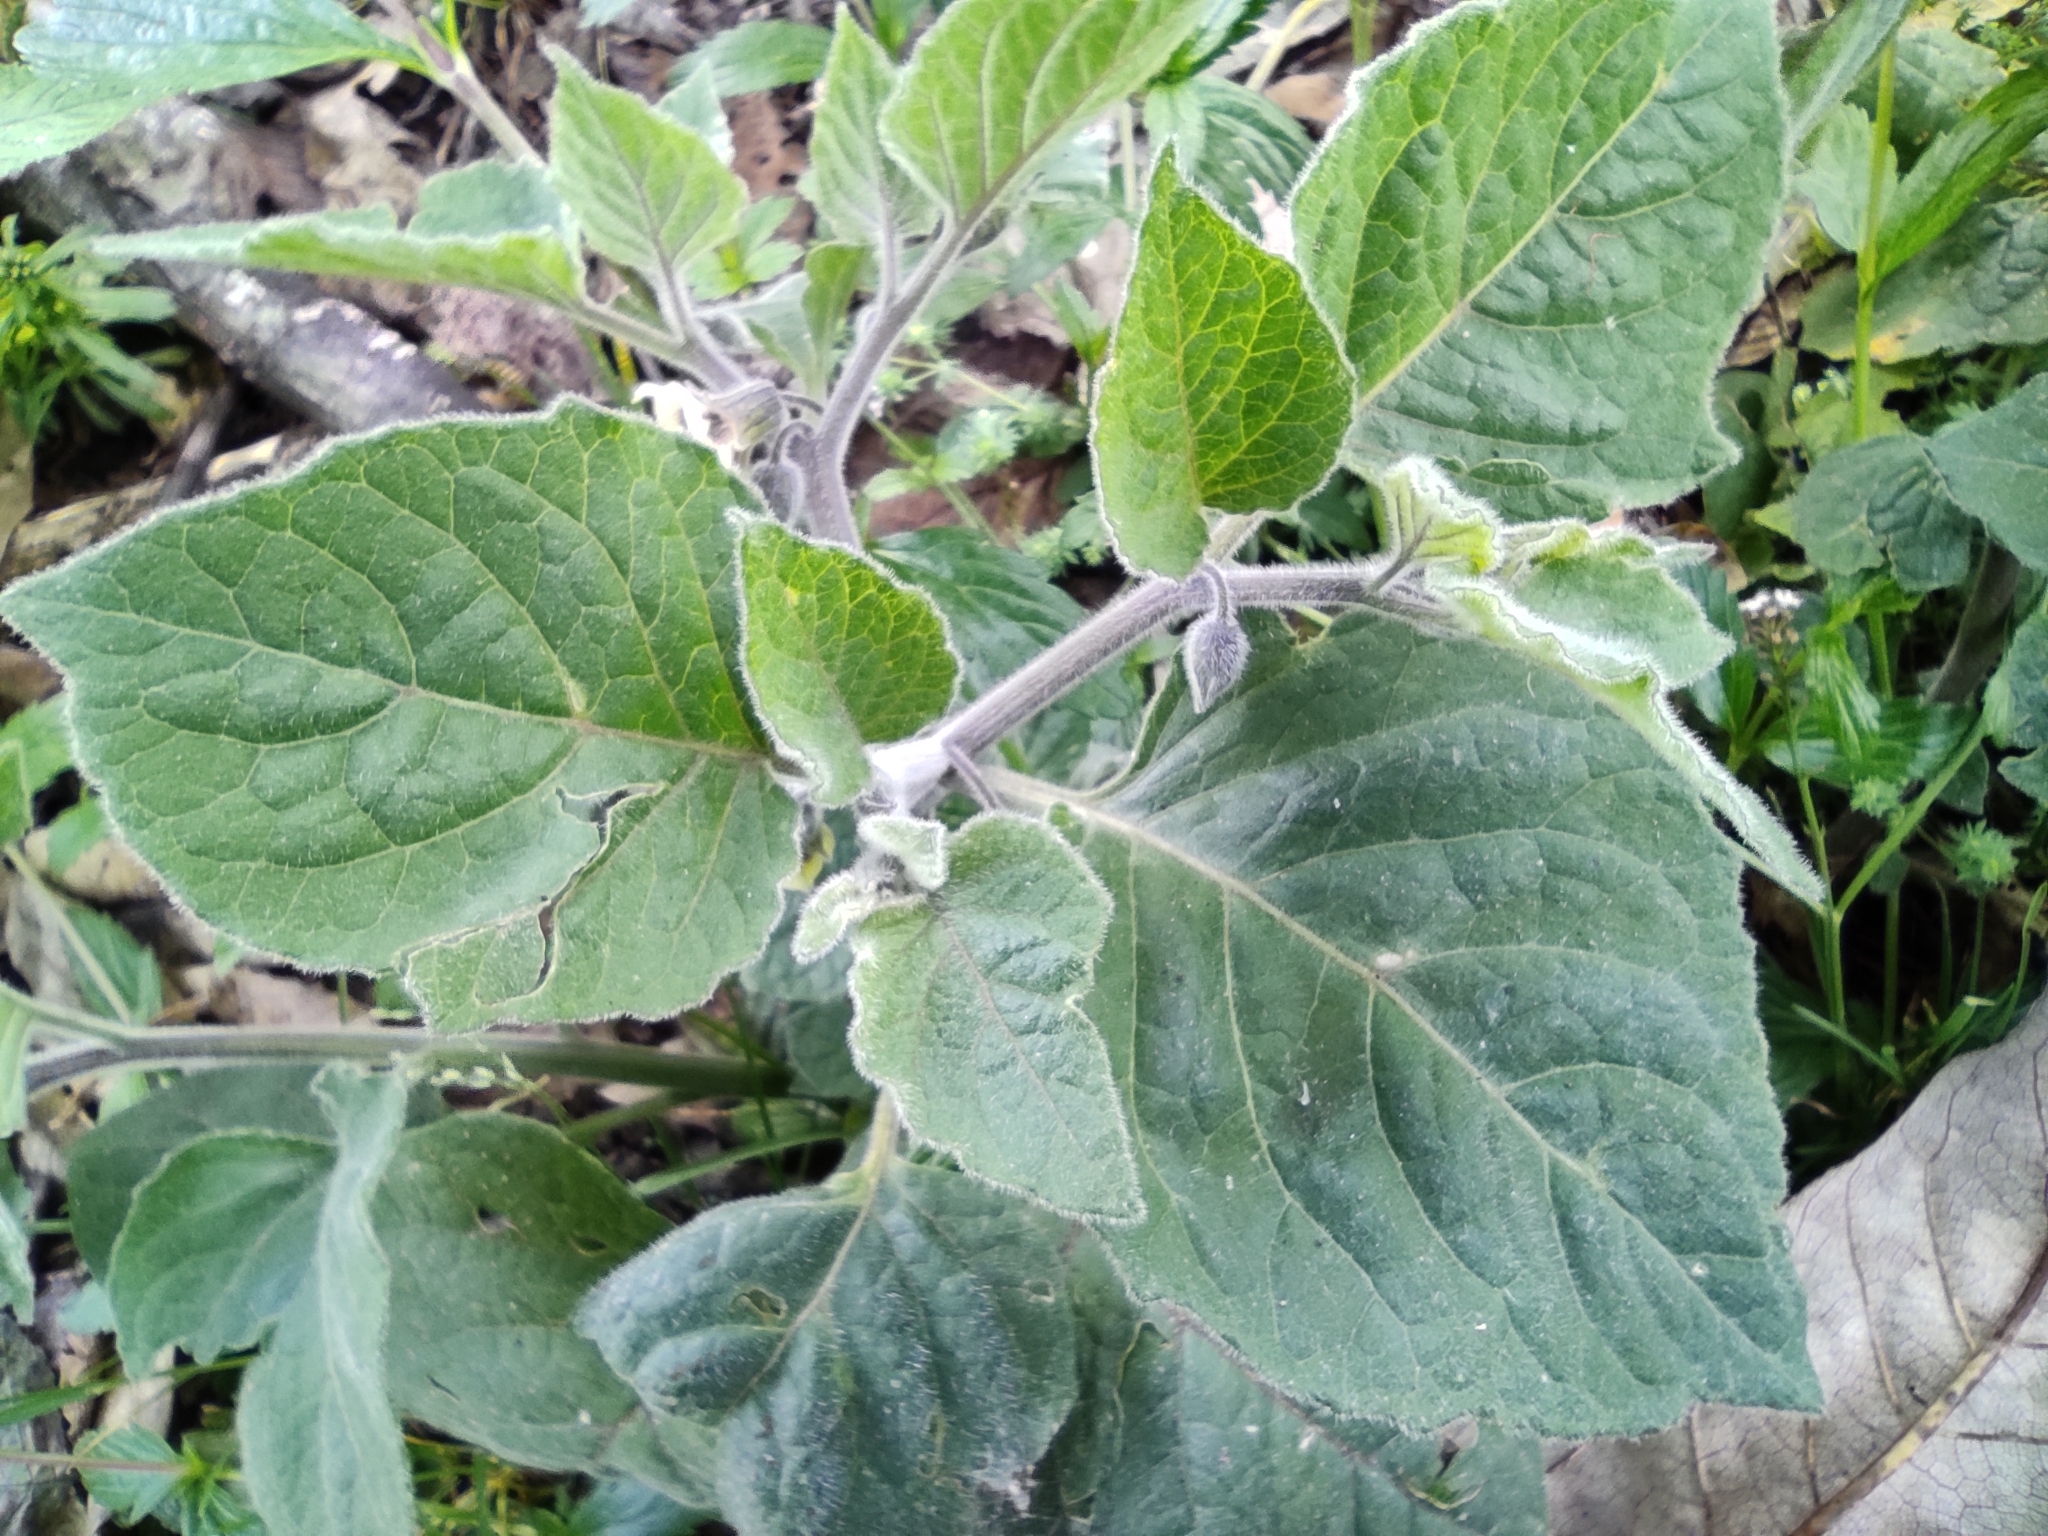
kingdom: Plantae
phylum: Tracheophyta
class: Magnoliopsida
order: Solanales
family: Solanaceae
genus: Physalis
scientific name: Physalis peruviana
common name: Cape-gooseberry
